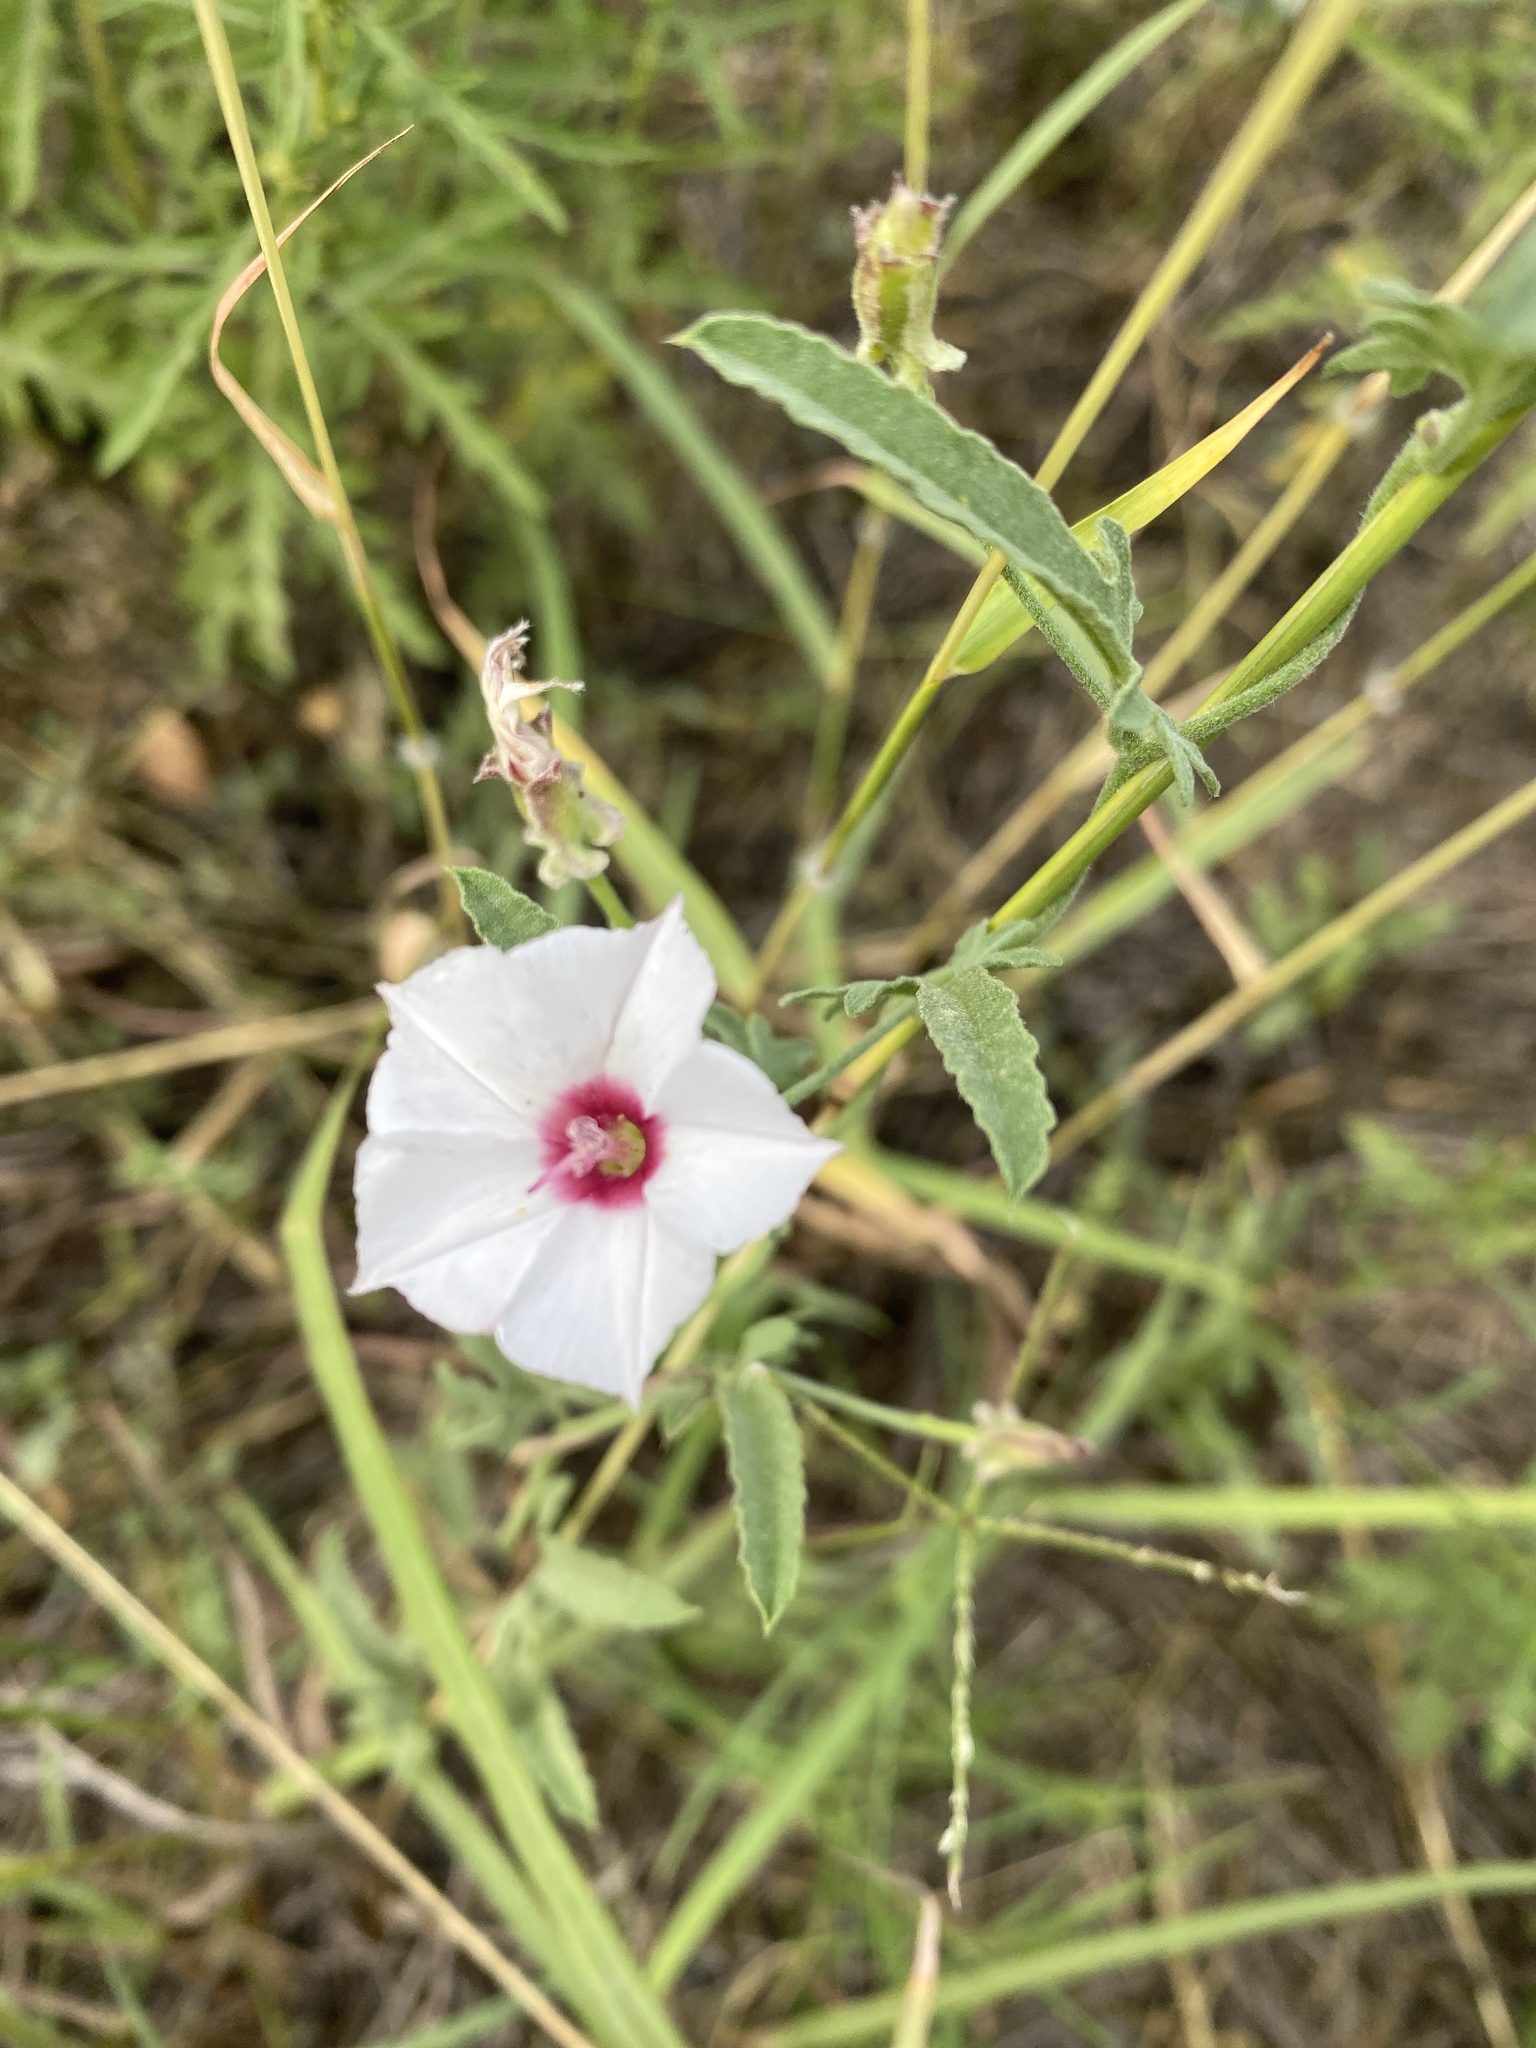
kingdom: Plantae
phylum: Tracheophyta
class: Magnoliopsida
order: Solanales
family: Convolvulaceae
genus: Convolvulus
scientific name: Convolvulus equitans
